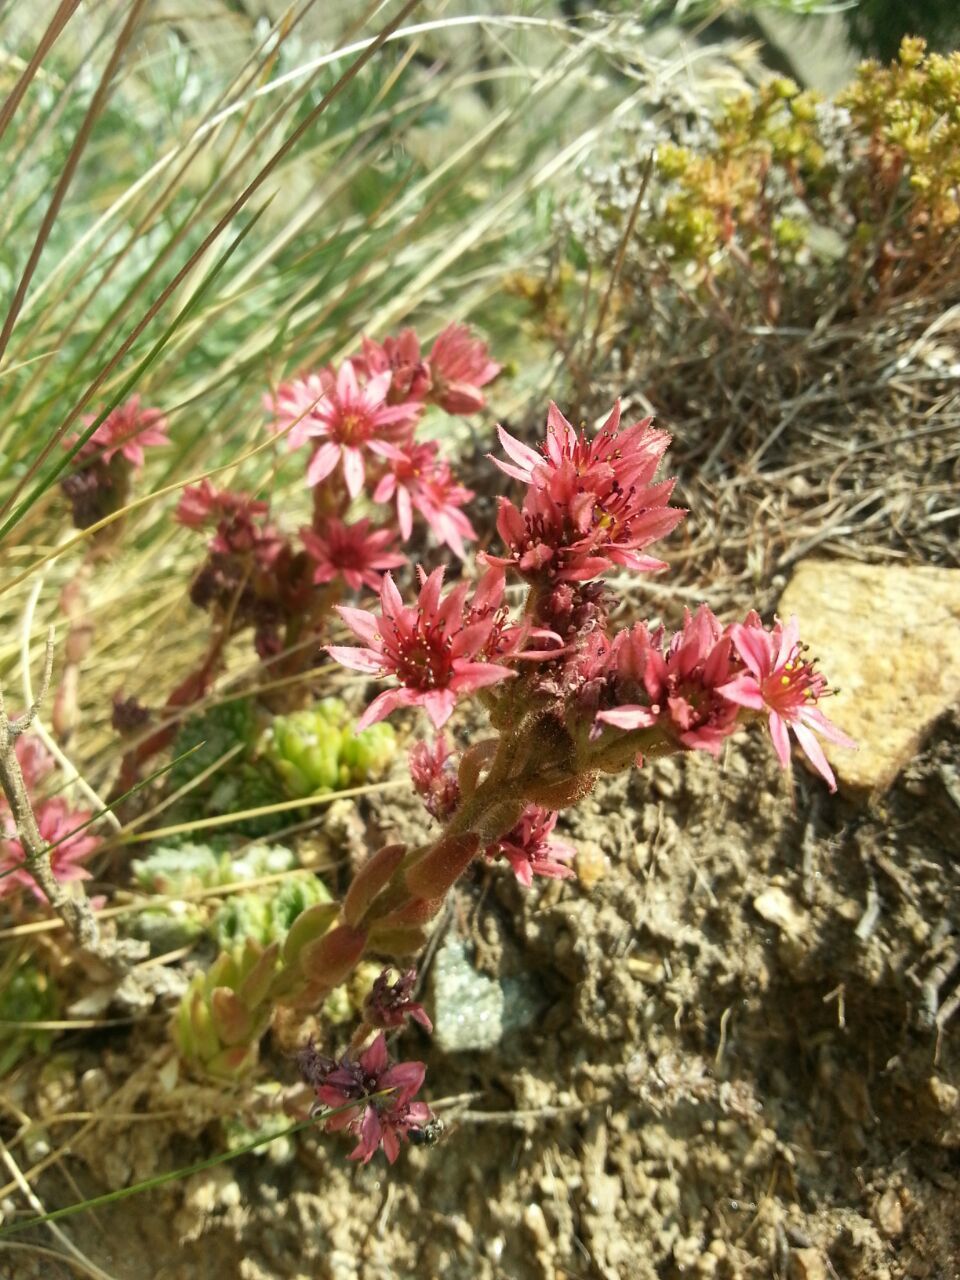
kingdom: Plantae
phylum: Tracheophyta
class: Magnoliopsida
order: Saxifragales
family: Crassulaceae
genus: Sempervivum
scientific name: Sempervivum arachnoideum
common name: Cobweb house-leek
